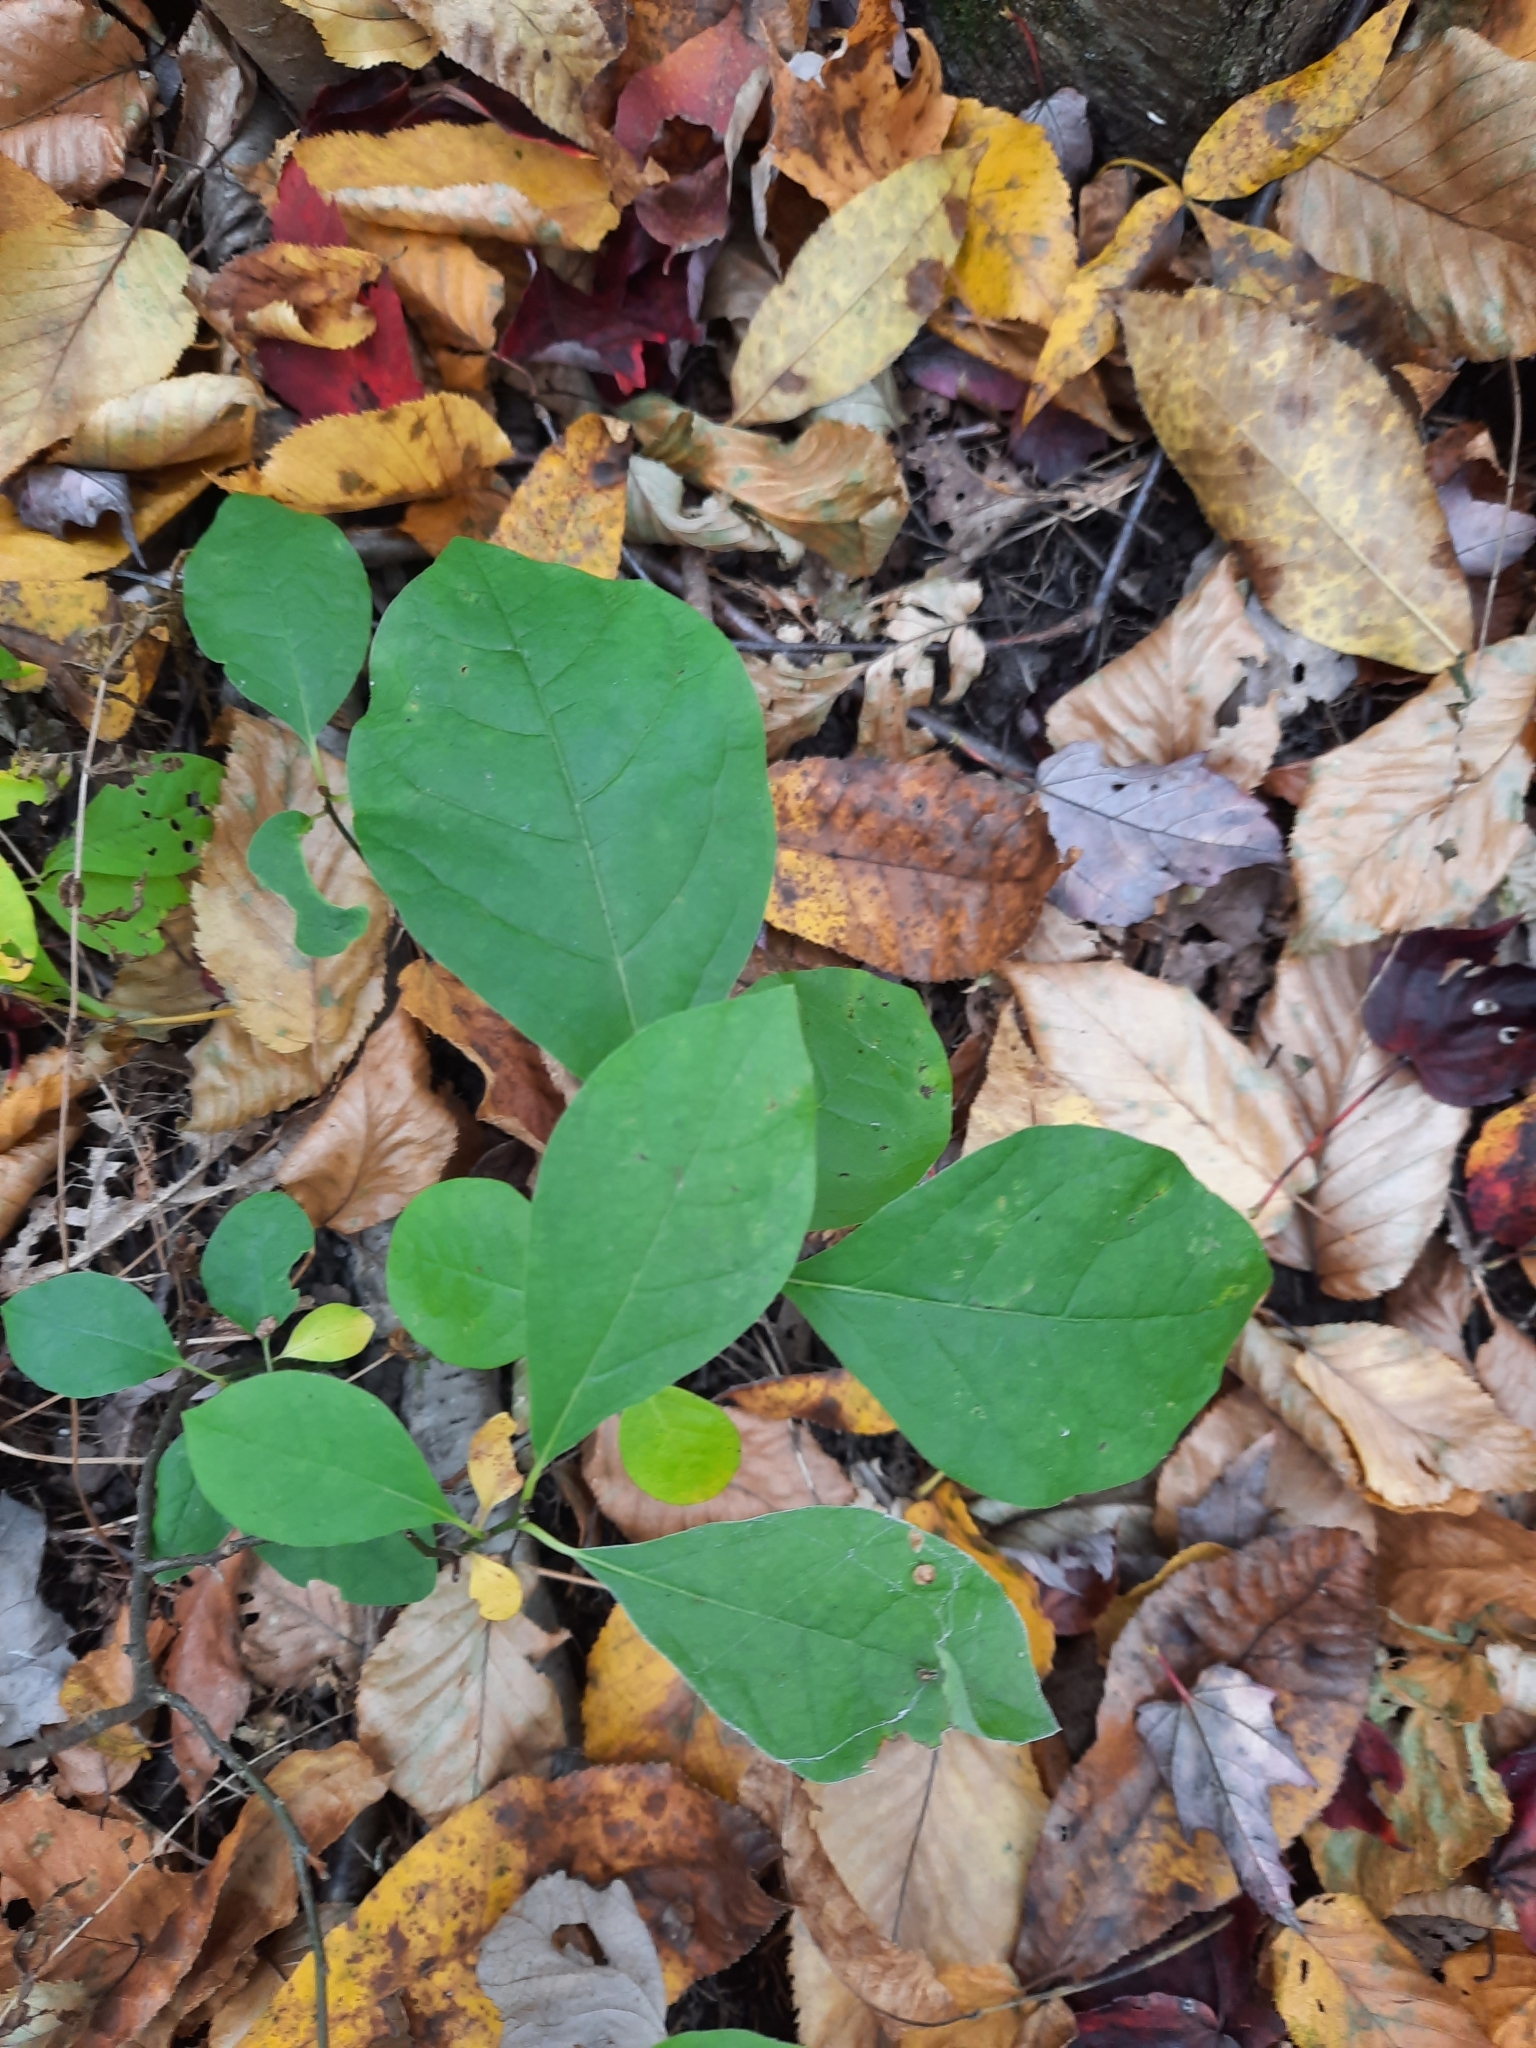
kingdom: Plantae
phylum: Tracheophyta
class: Magnoliopsida
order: Laurales
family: Lauraceae
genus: Lindera
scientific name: Lindera benzoin
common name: Spicebush
